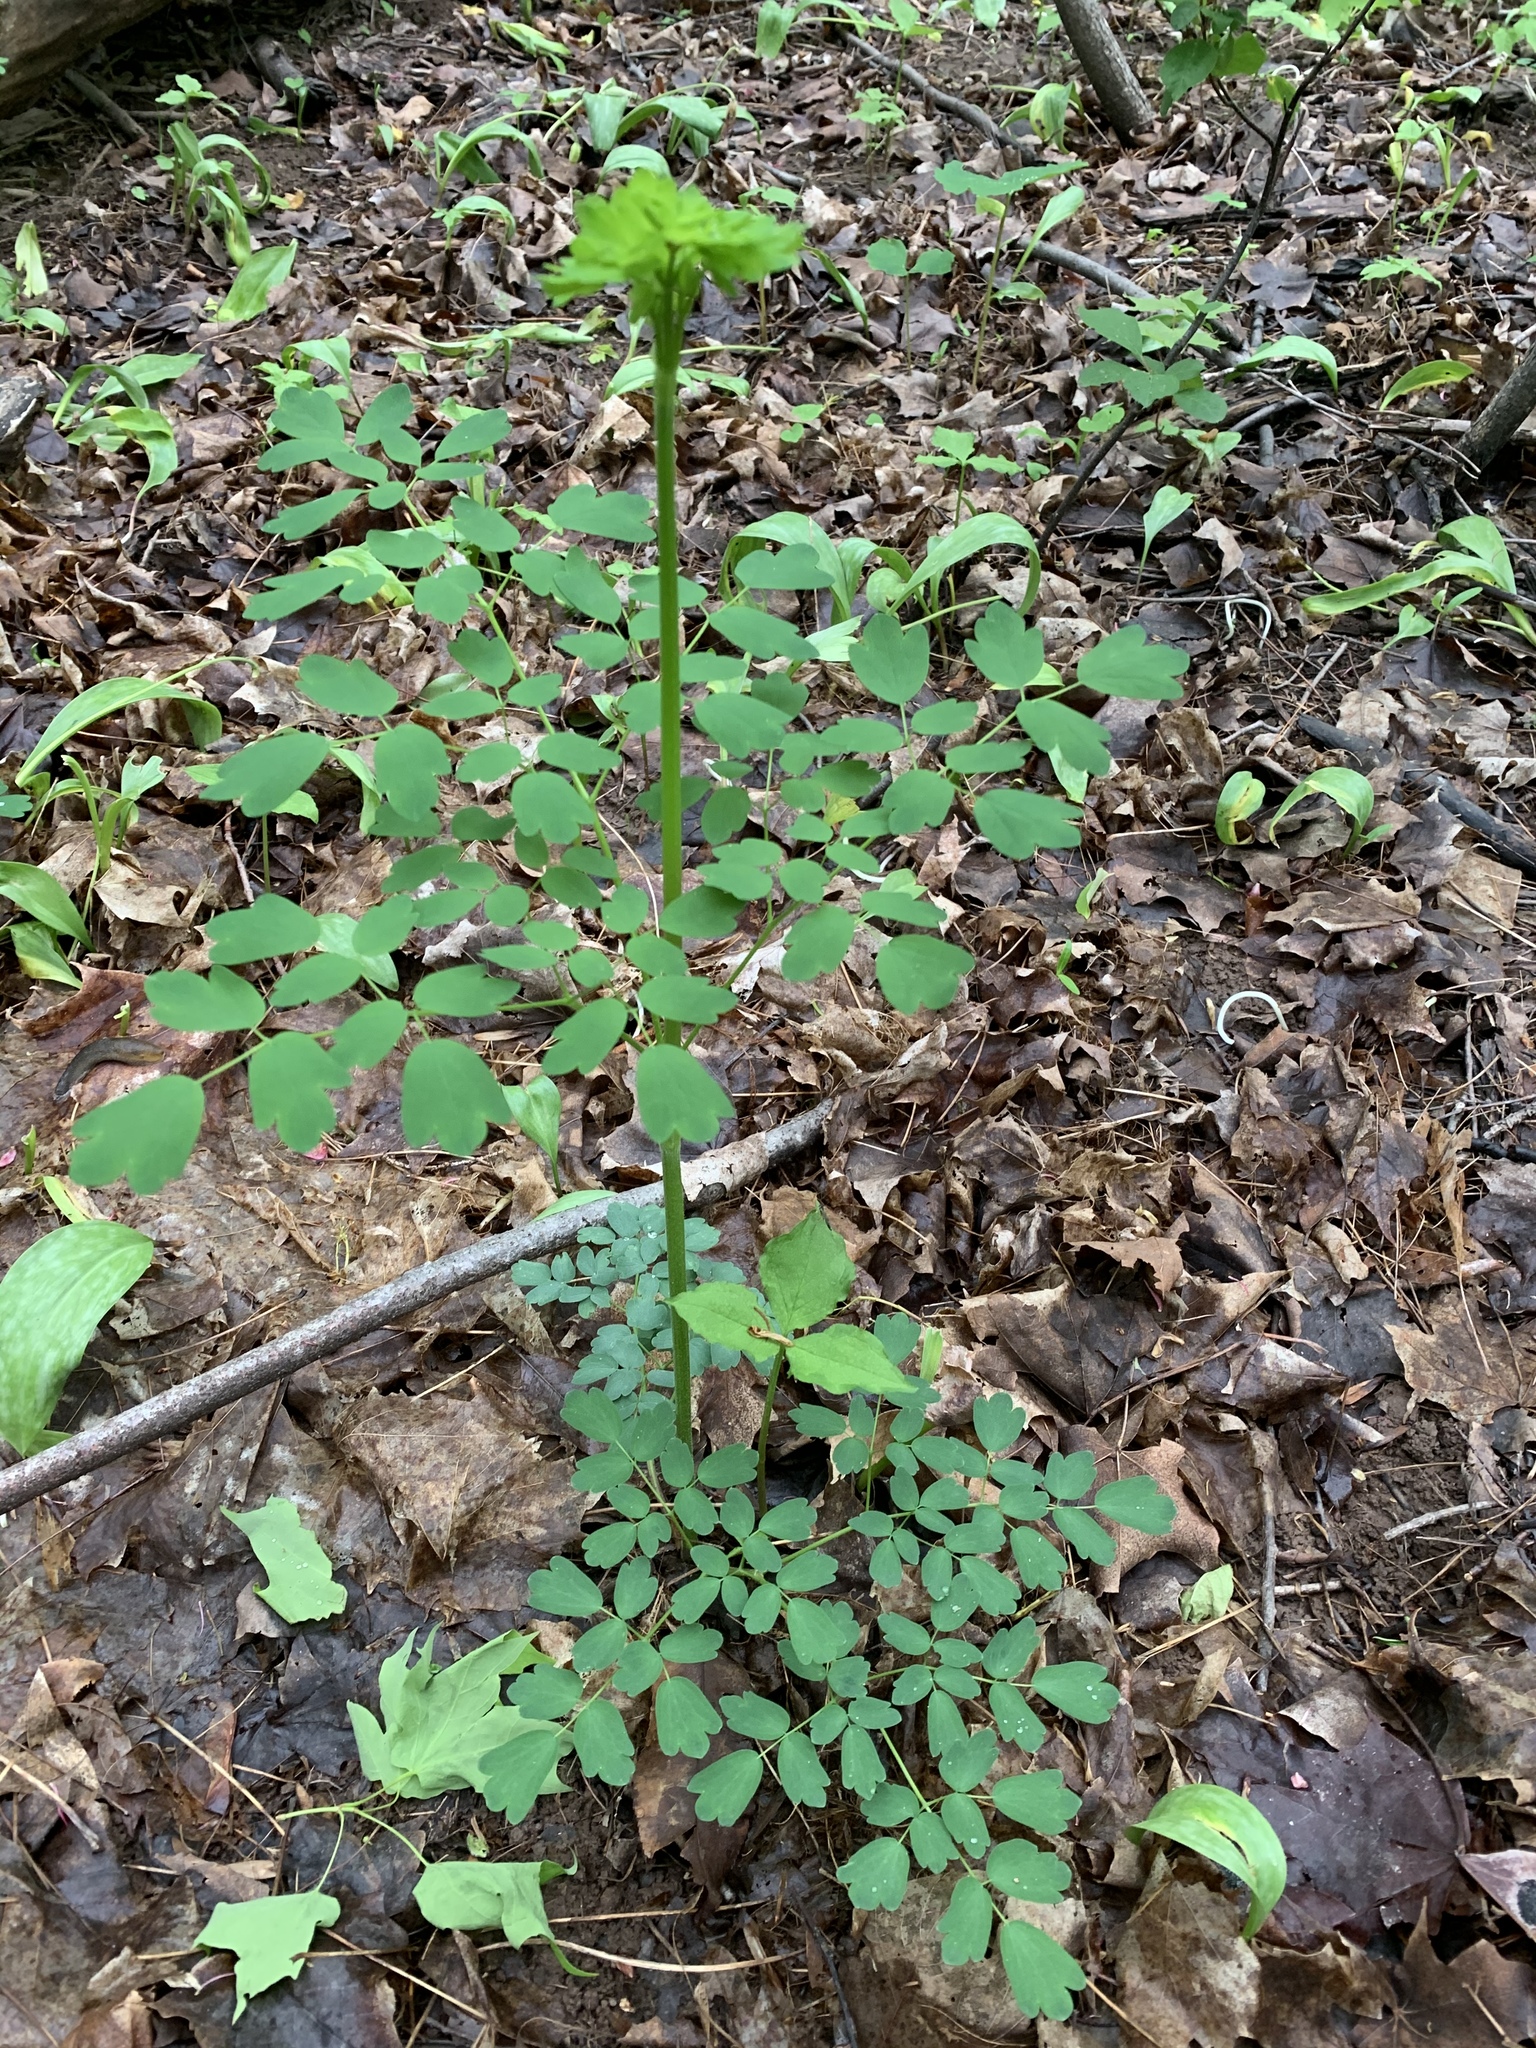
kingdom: Plantae
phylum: Tracheophyta
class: Magnoliopsida
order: Ranunculales
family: Ranunculaceae
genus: Thalictrum
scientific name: Thalictrum pubescens
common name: King-of-the-meadow
